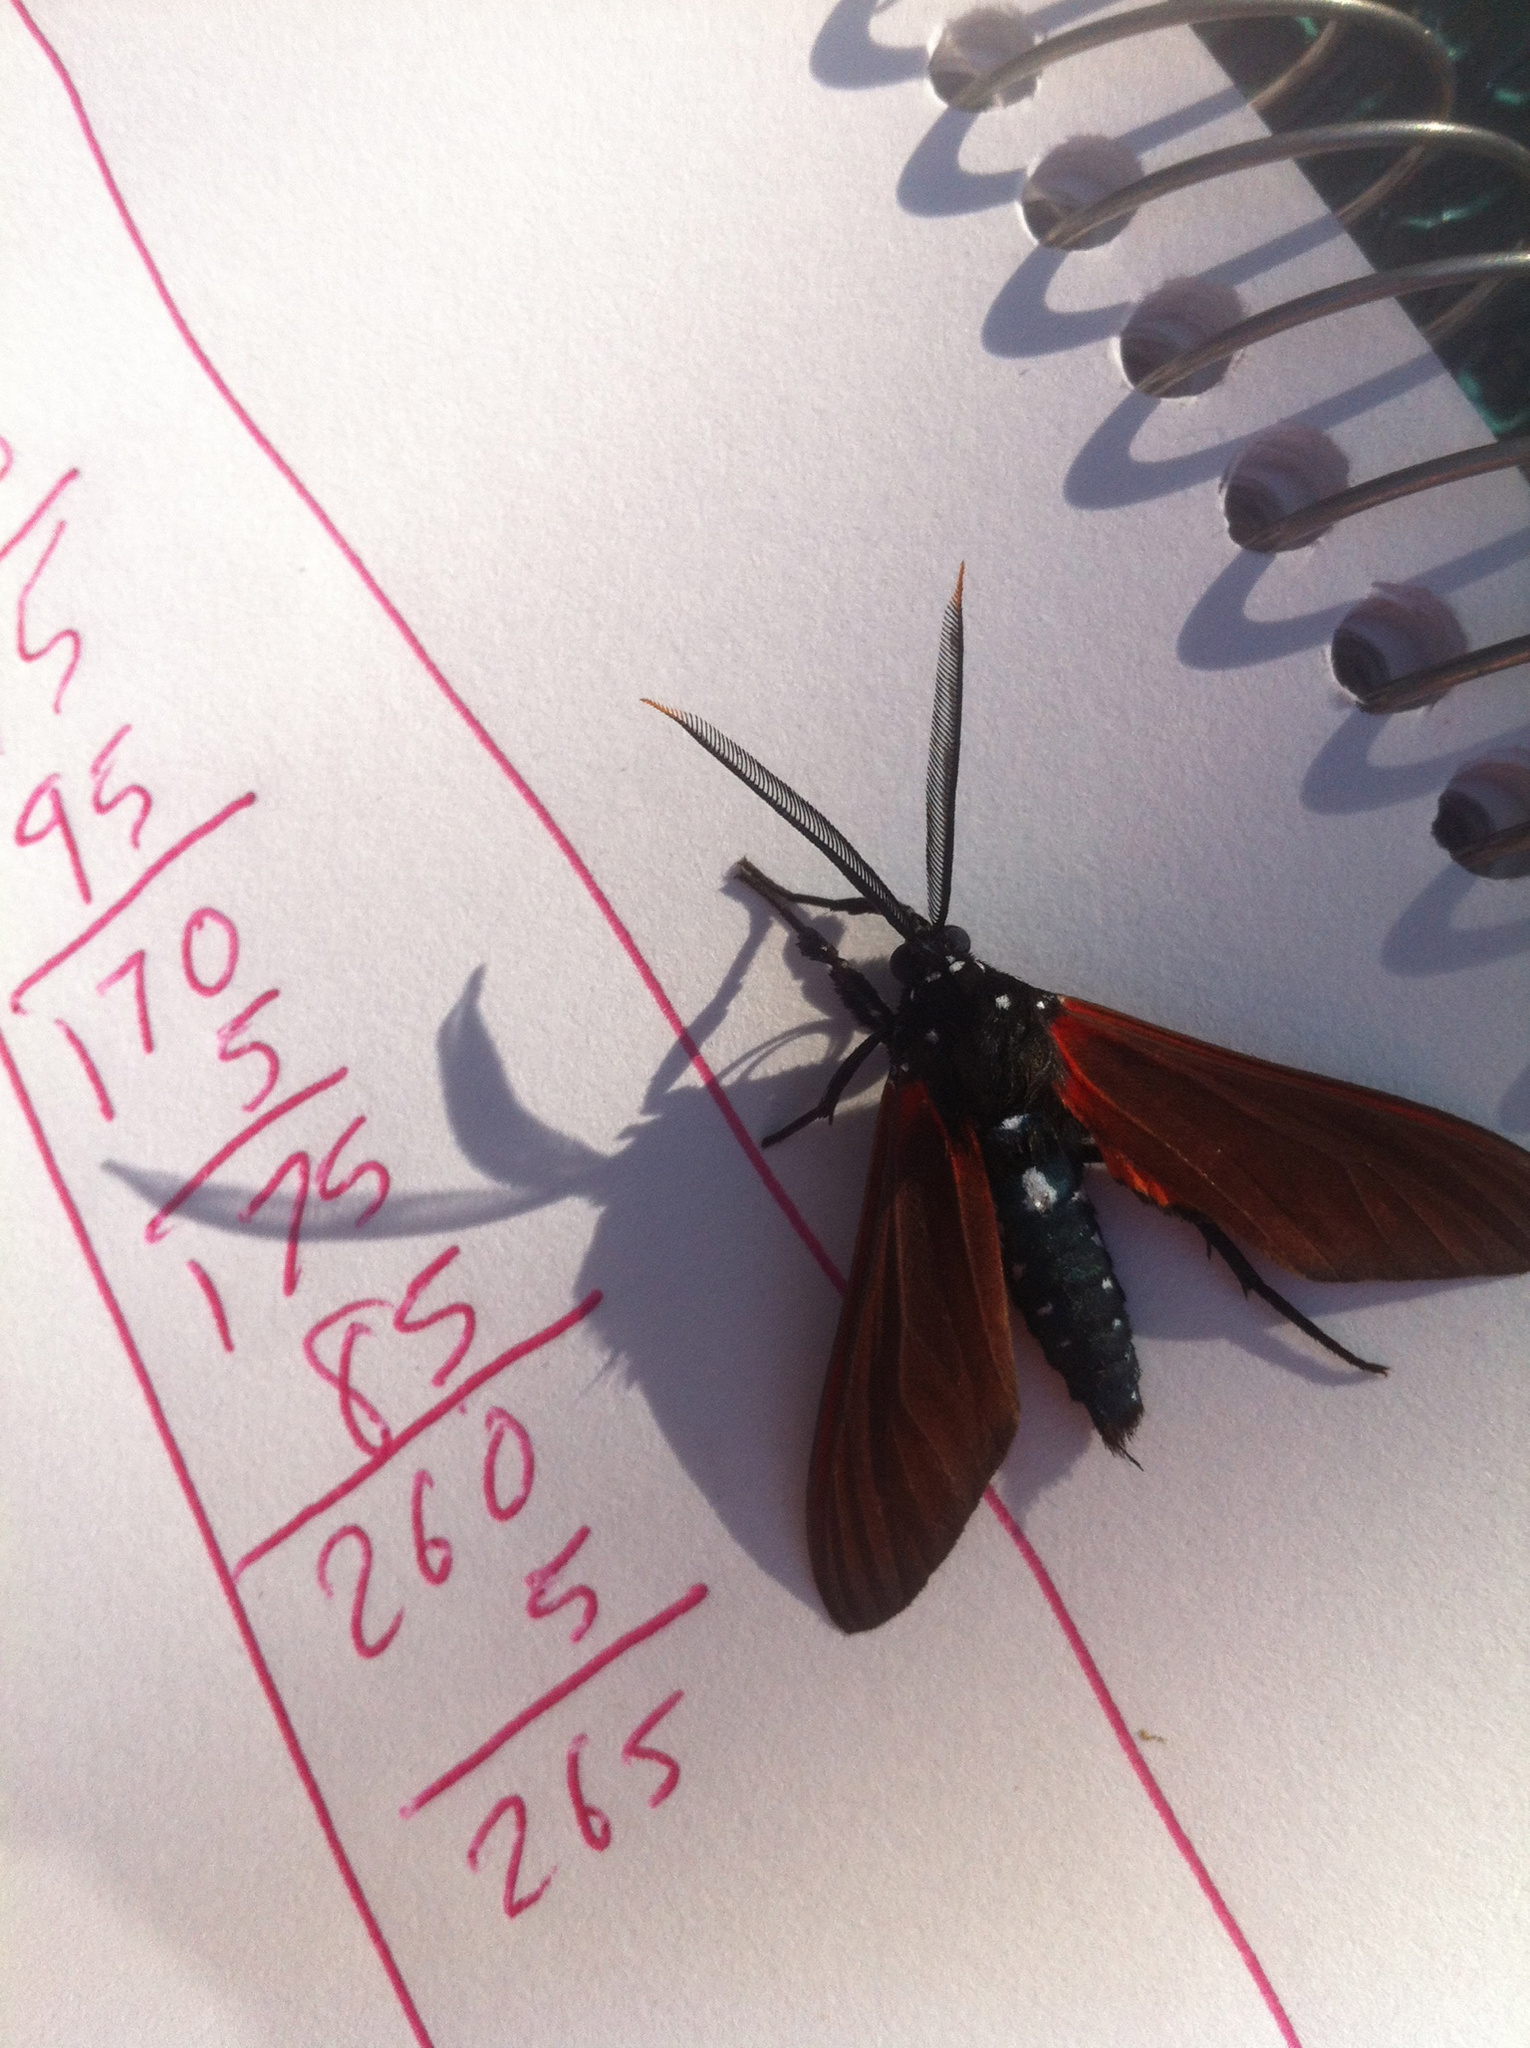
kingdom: Animalia
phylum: Arthropoda
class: Insecta
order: Lepidoptera
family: Erebidae
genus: Empyreuma
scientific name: Empyreuma pugione
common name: Spotted oleander caterpillar moth
